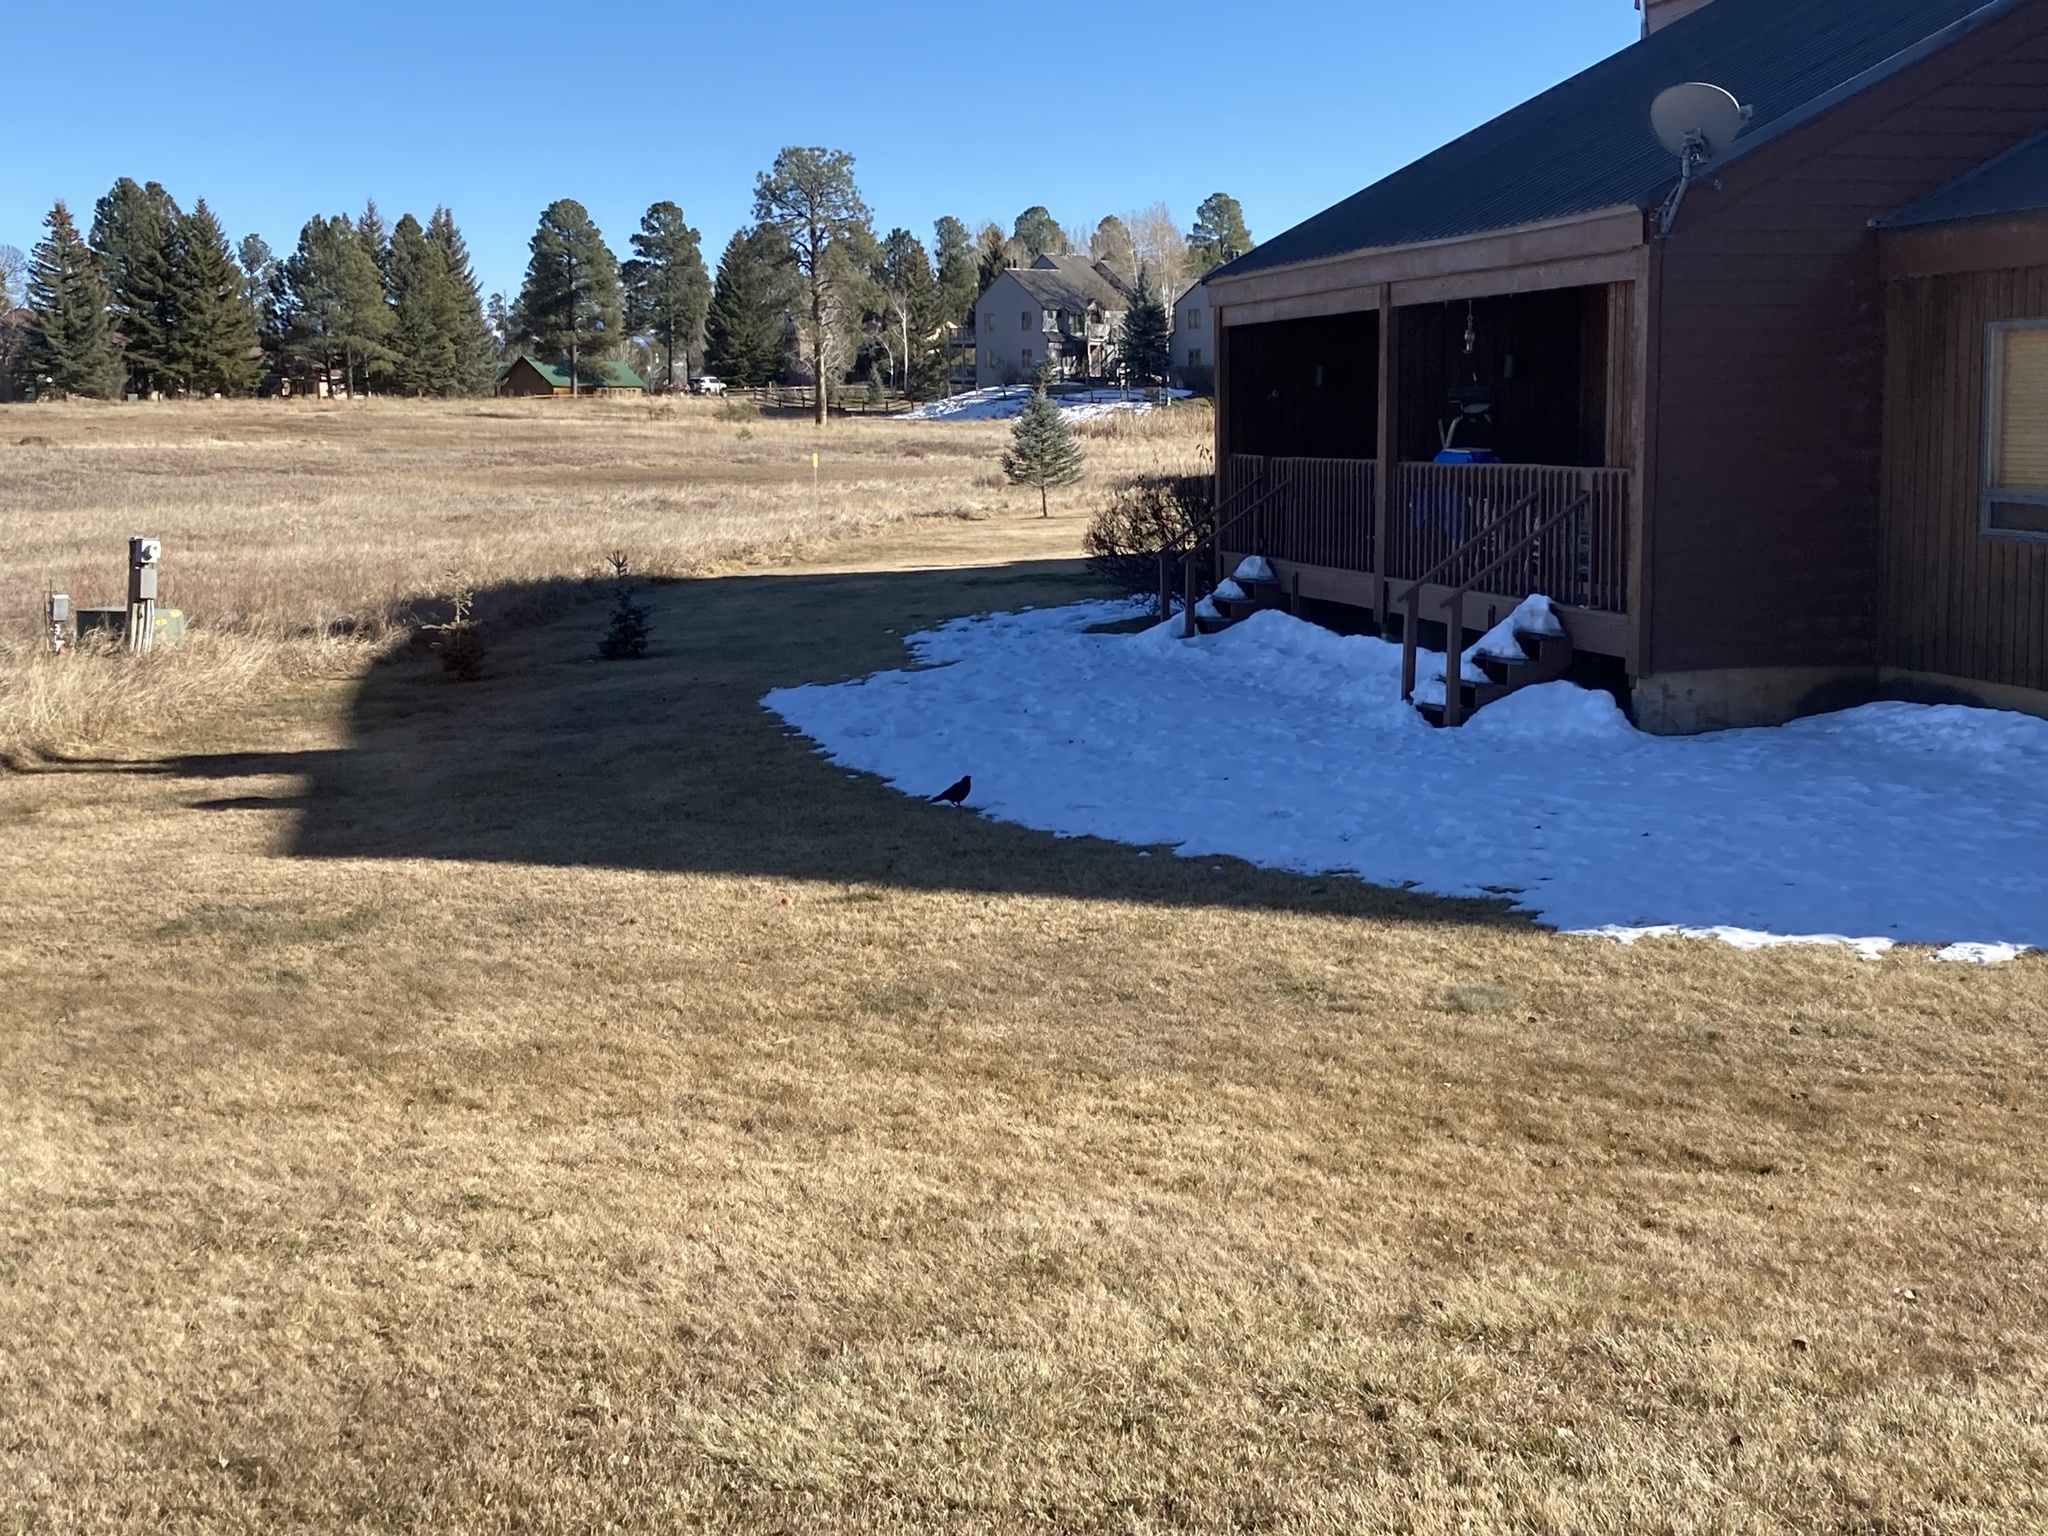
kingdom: Animalia
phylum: Chordata
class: Aves
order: Passeriformes
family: Corvidae
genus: Corvus
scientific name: Corvus brachyrhynchos
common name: American crow
